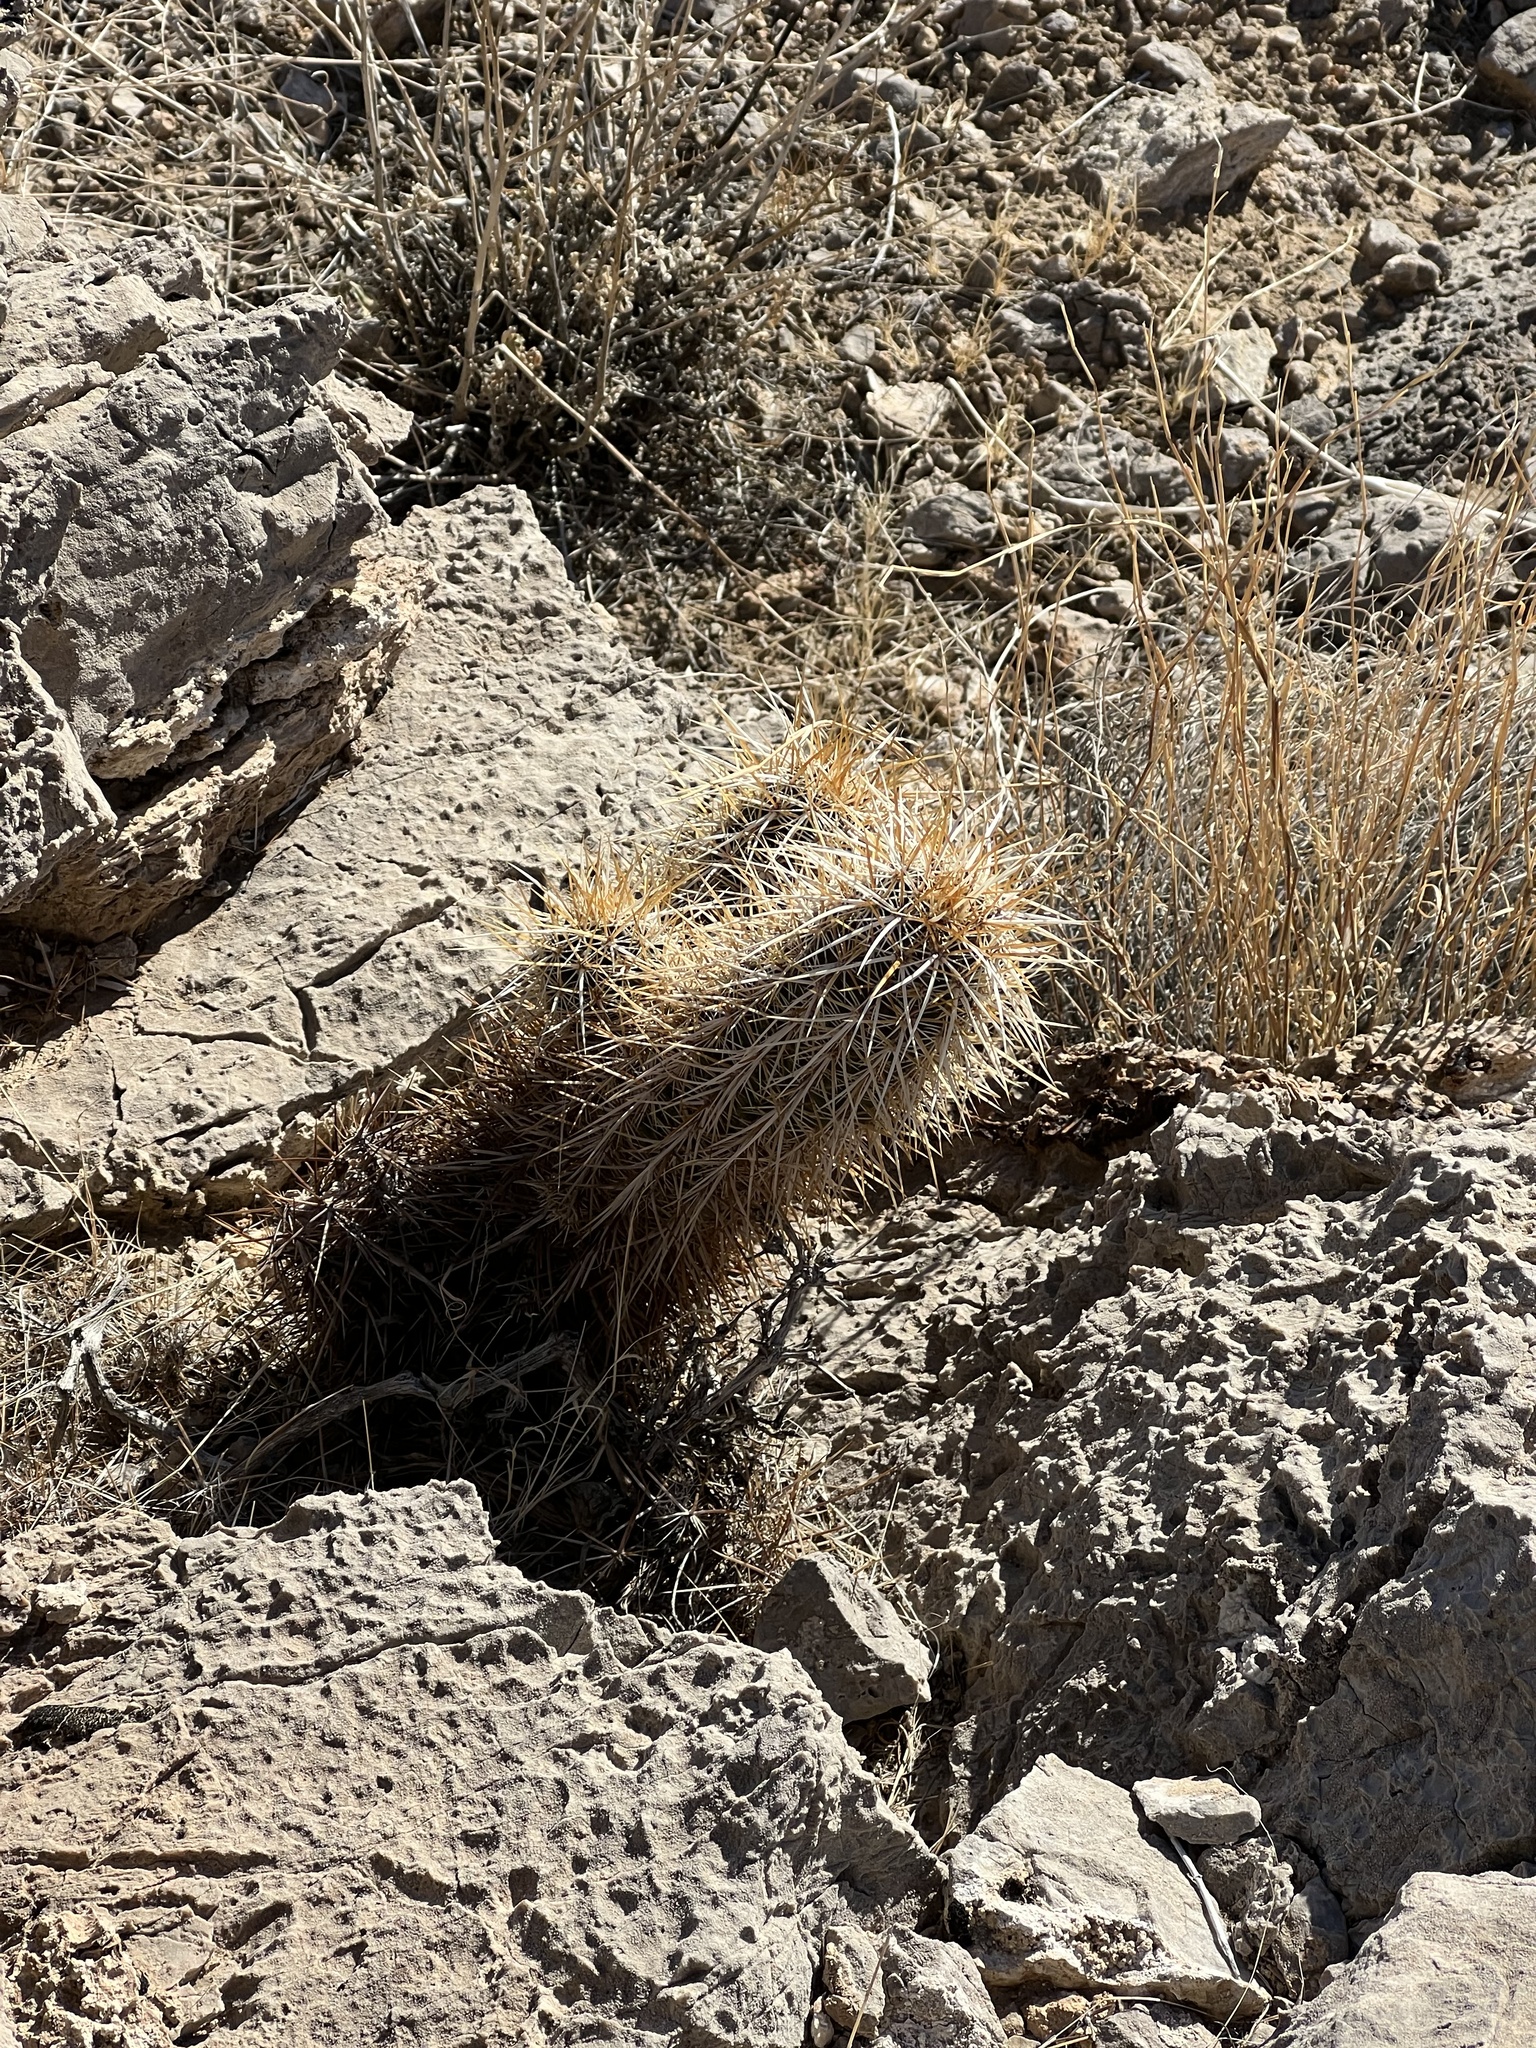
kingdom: Plantae
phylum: Tracheophyta
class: Magnoliopsida
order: Caryophyllales
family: Cactaceae
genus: Echinocereus
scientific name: Echinocereus engelmannii
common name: Engelmann's hedgehog cactus
